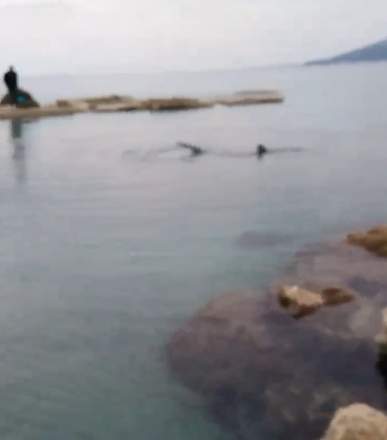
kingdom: Animalia
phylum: Chordata
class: Elasmobranchii
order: Carcharhiniformes
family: Carcharhinidae
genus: Prionace
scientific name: Prionace glauca
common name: Blue shark
